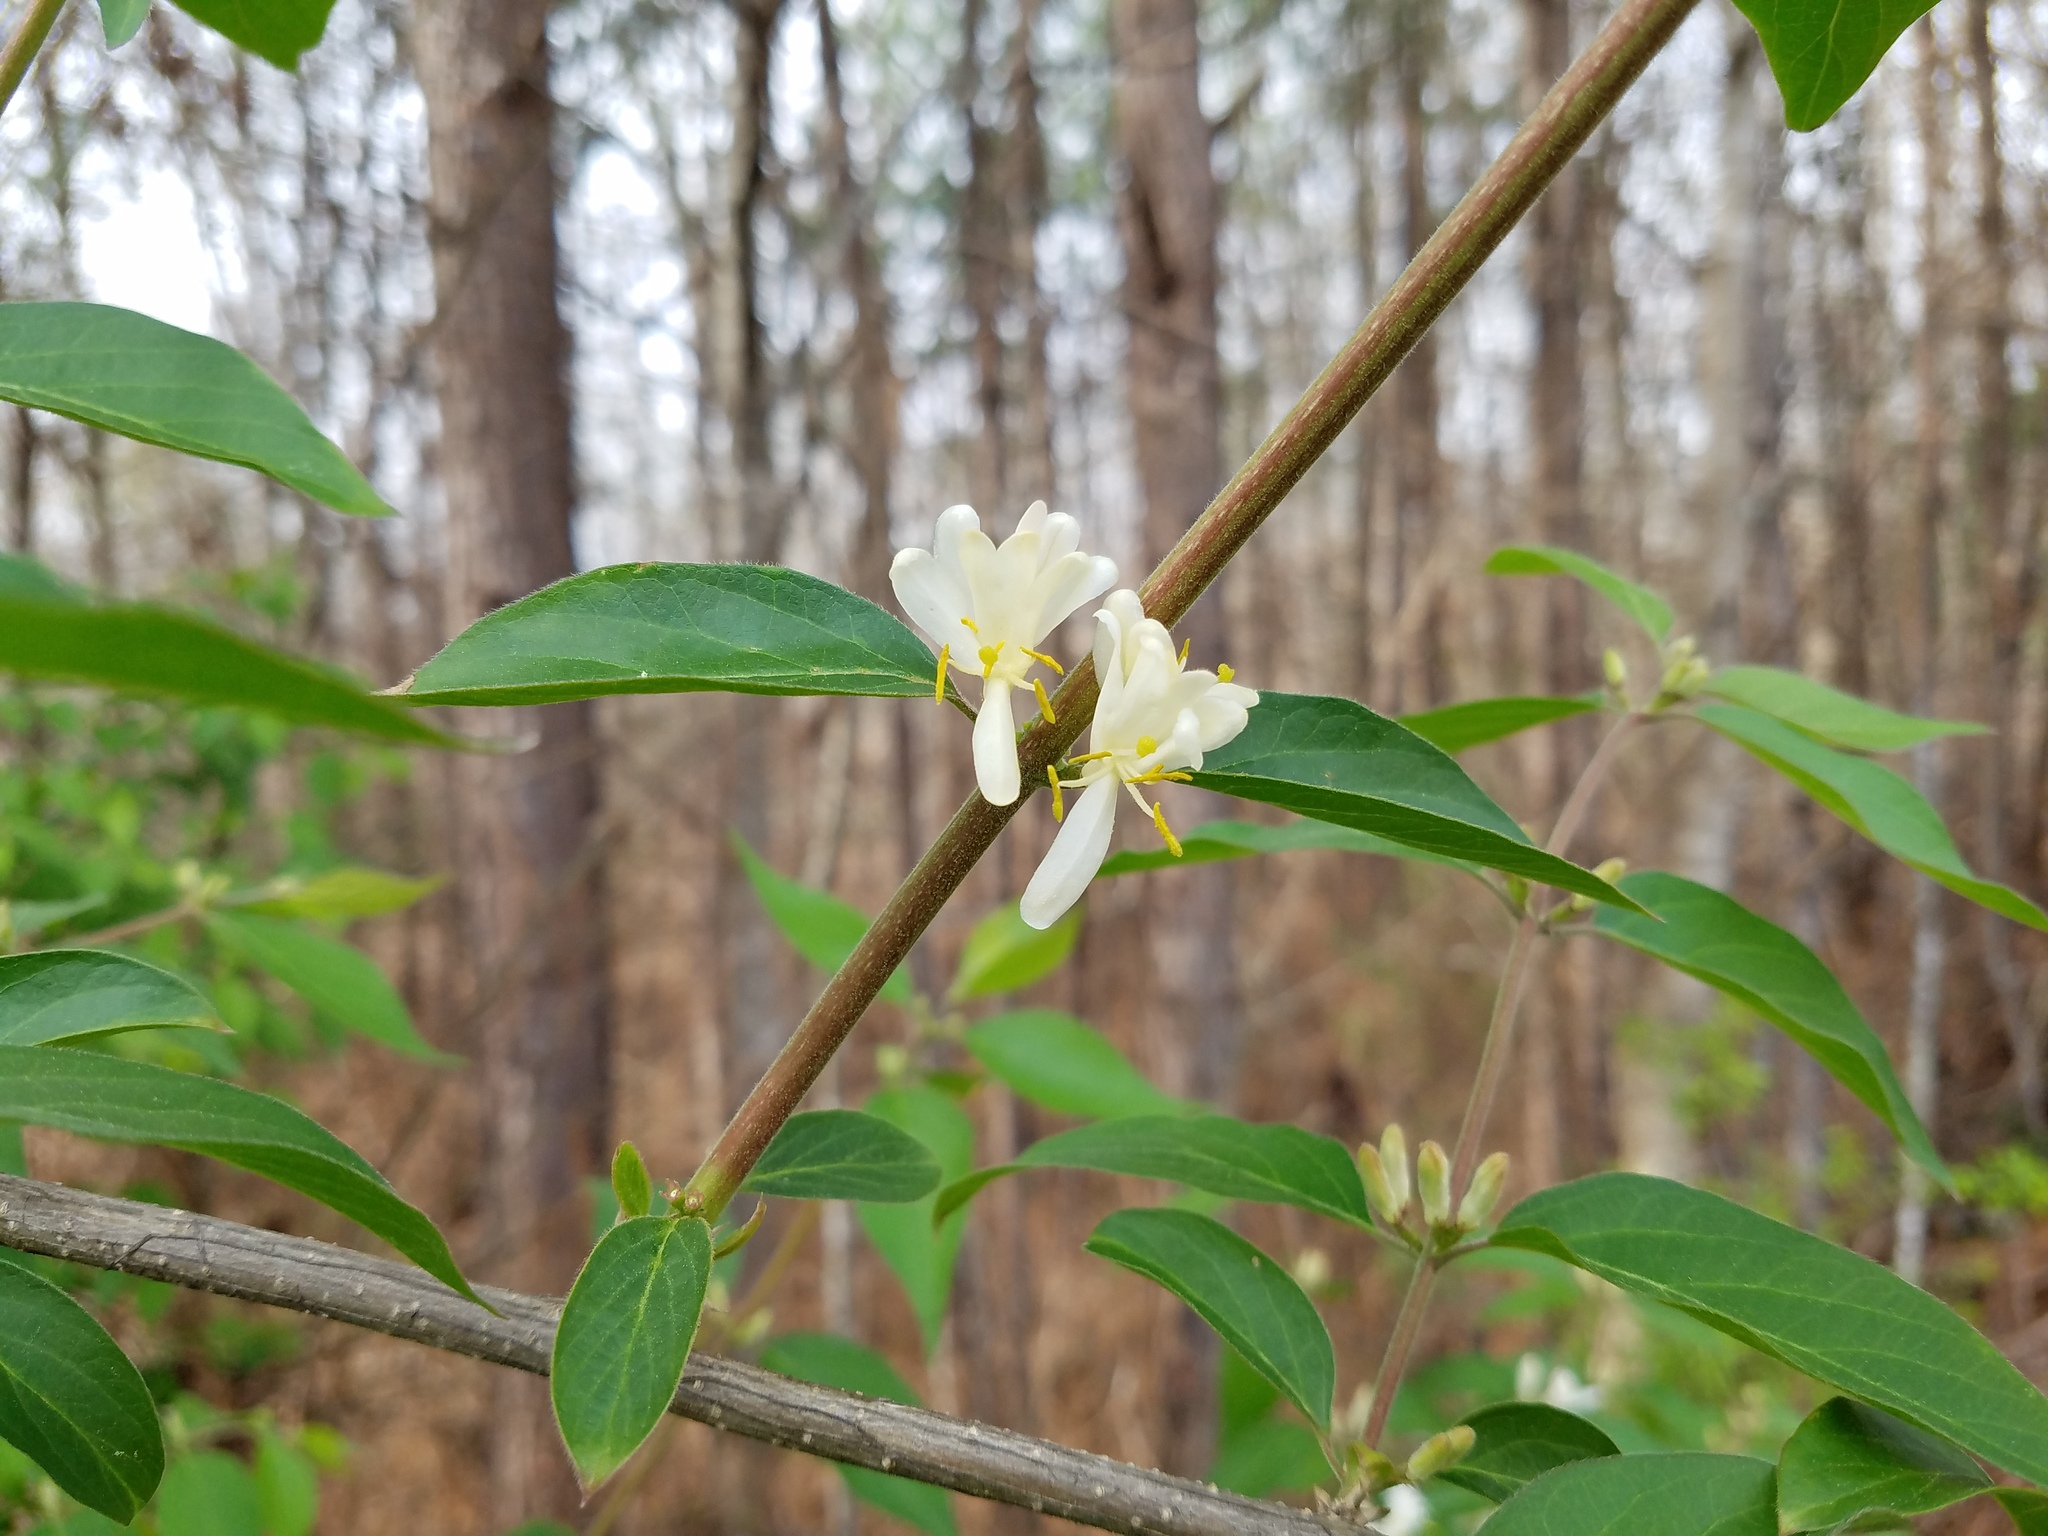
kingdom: Plantae
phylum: Tracheophyta
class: Magnoliopsida
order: Dipsacales
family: Caprifoliaceae
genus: Lonicera
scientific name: Lonicera maackii
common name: Amur honeysuckle
